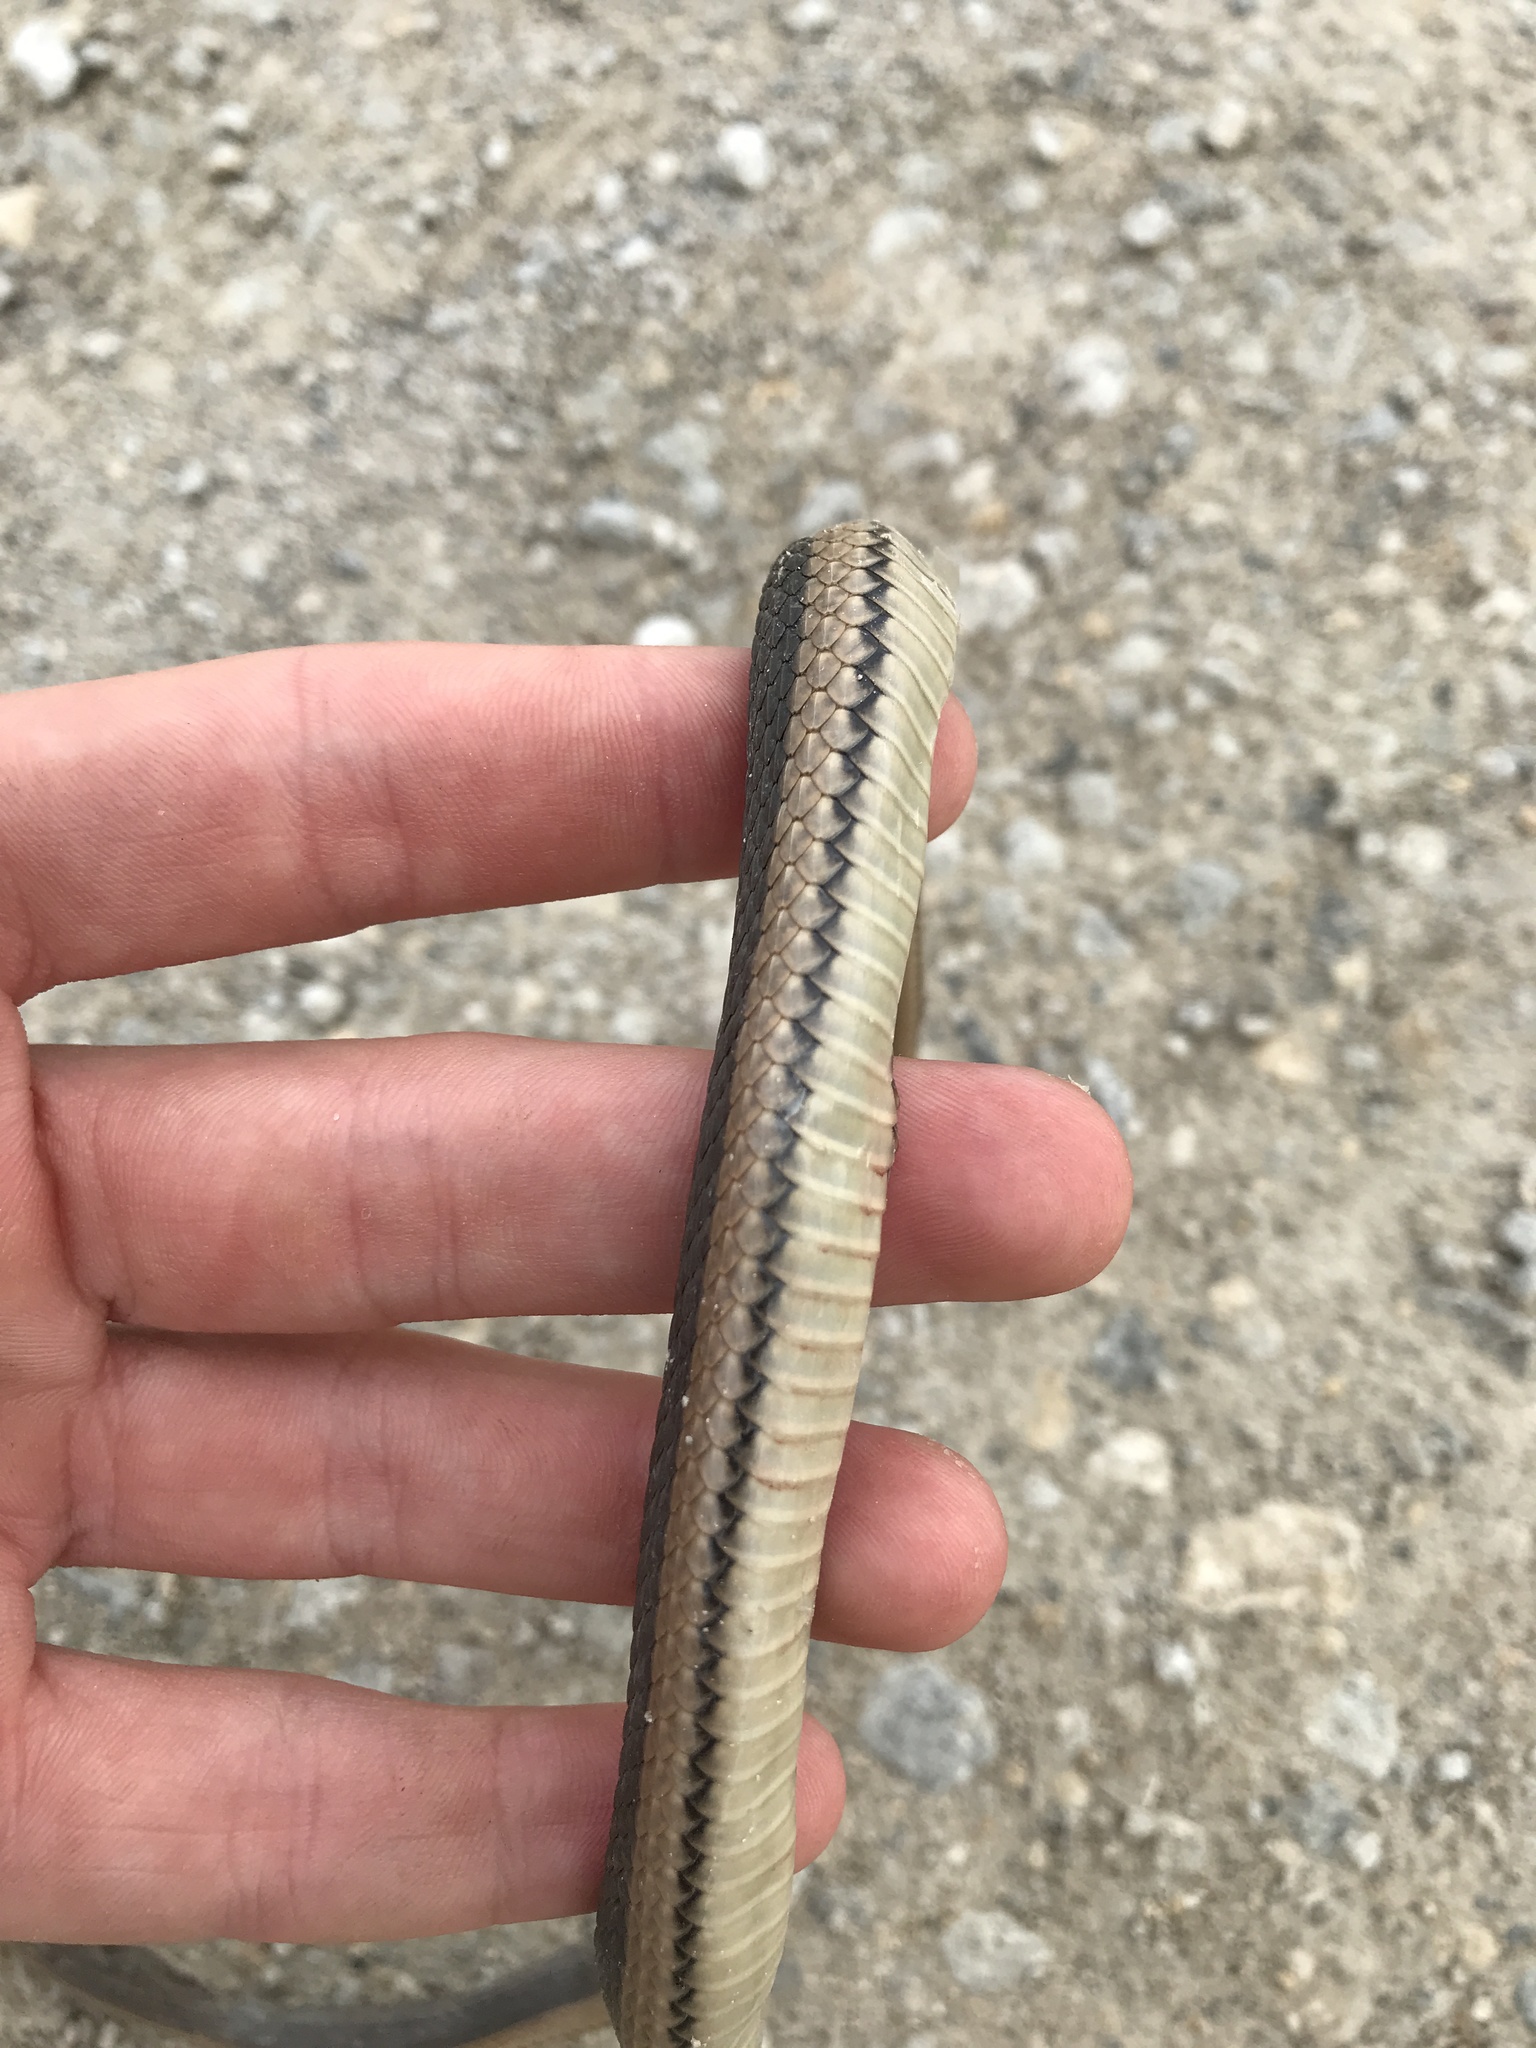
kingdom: Animalia
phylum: Chordata
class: Squamata
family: Colubridae
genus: Regina
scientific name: Regina grahamii
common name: Graham's crayfish snake
